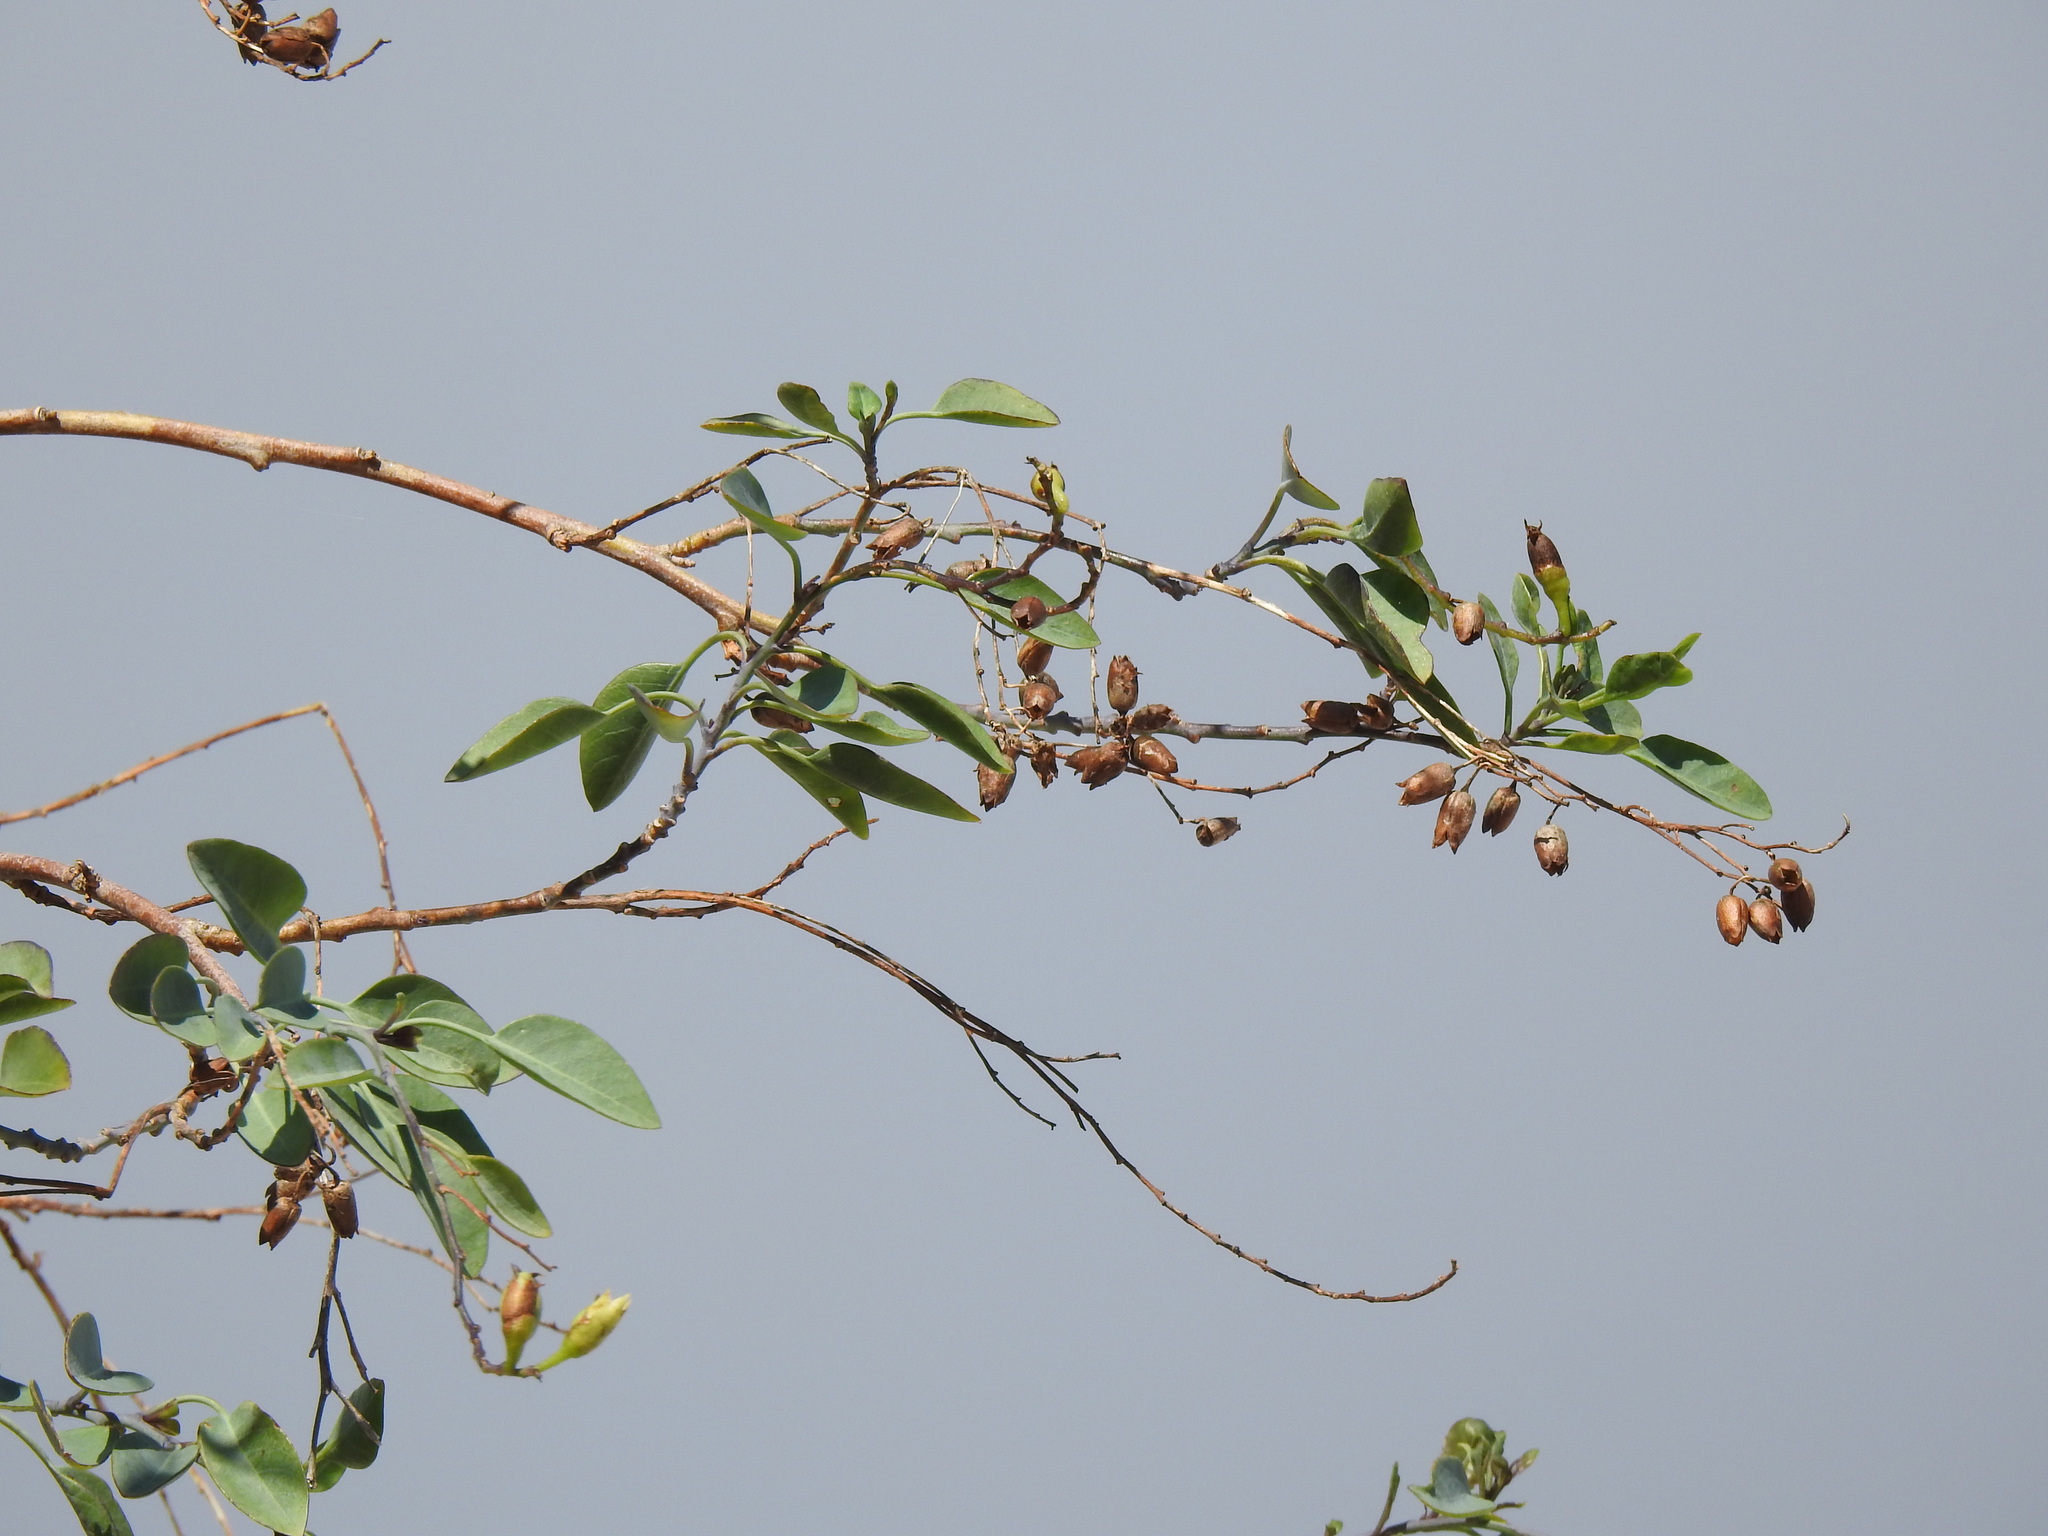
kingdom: Plantae
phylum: Tracheophyta
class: Magnoliopsida
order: Solanales
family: Solanaceae
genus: Nicotiana
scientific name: Nicotiana glauca
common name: Tree tobacco
